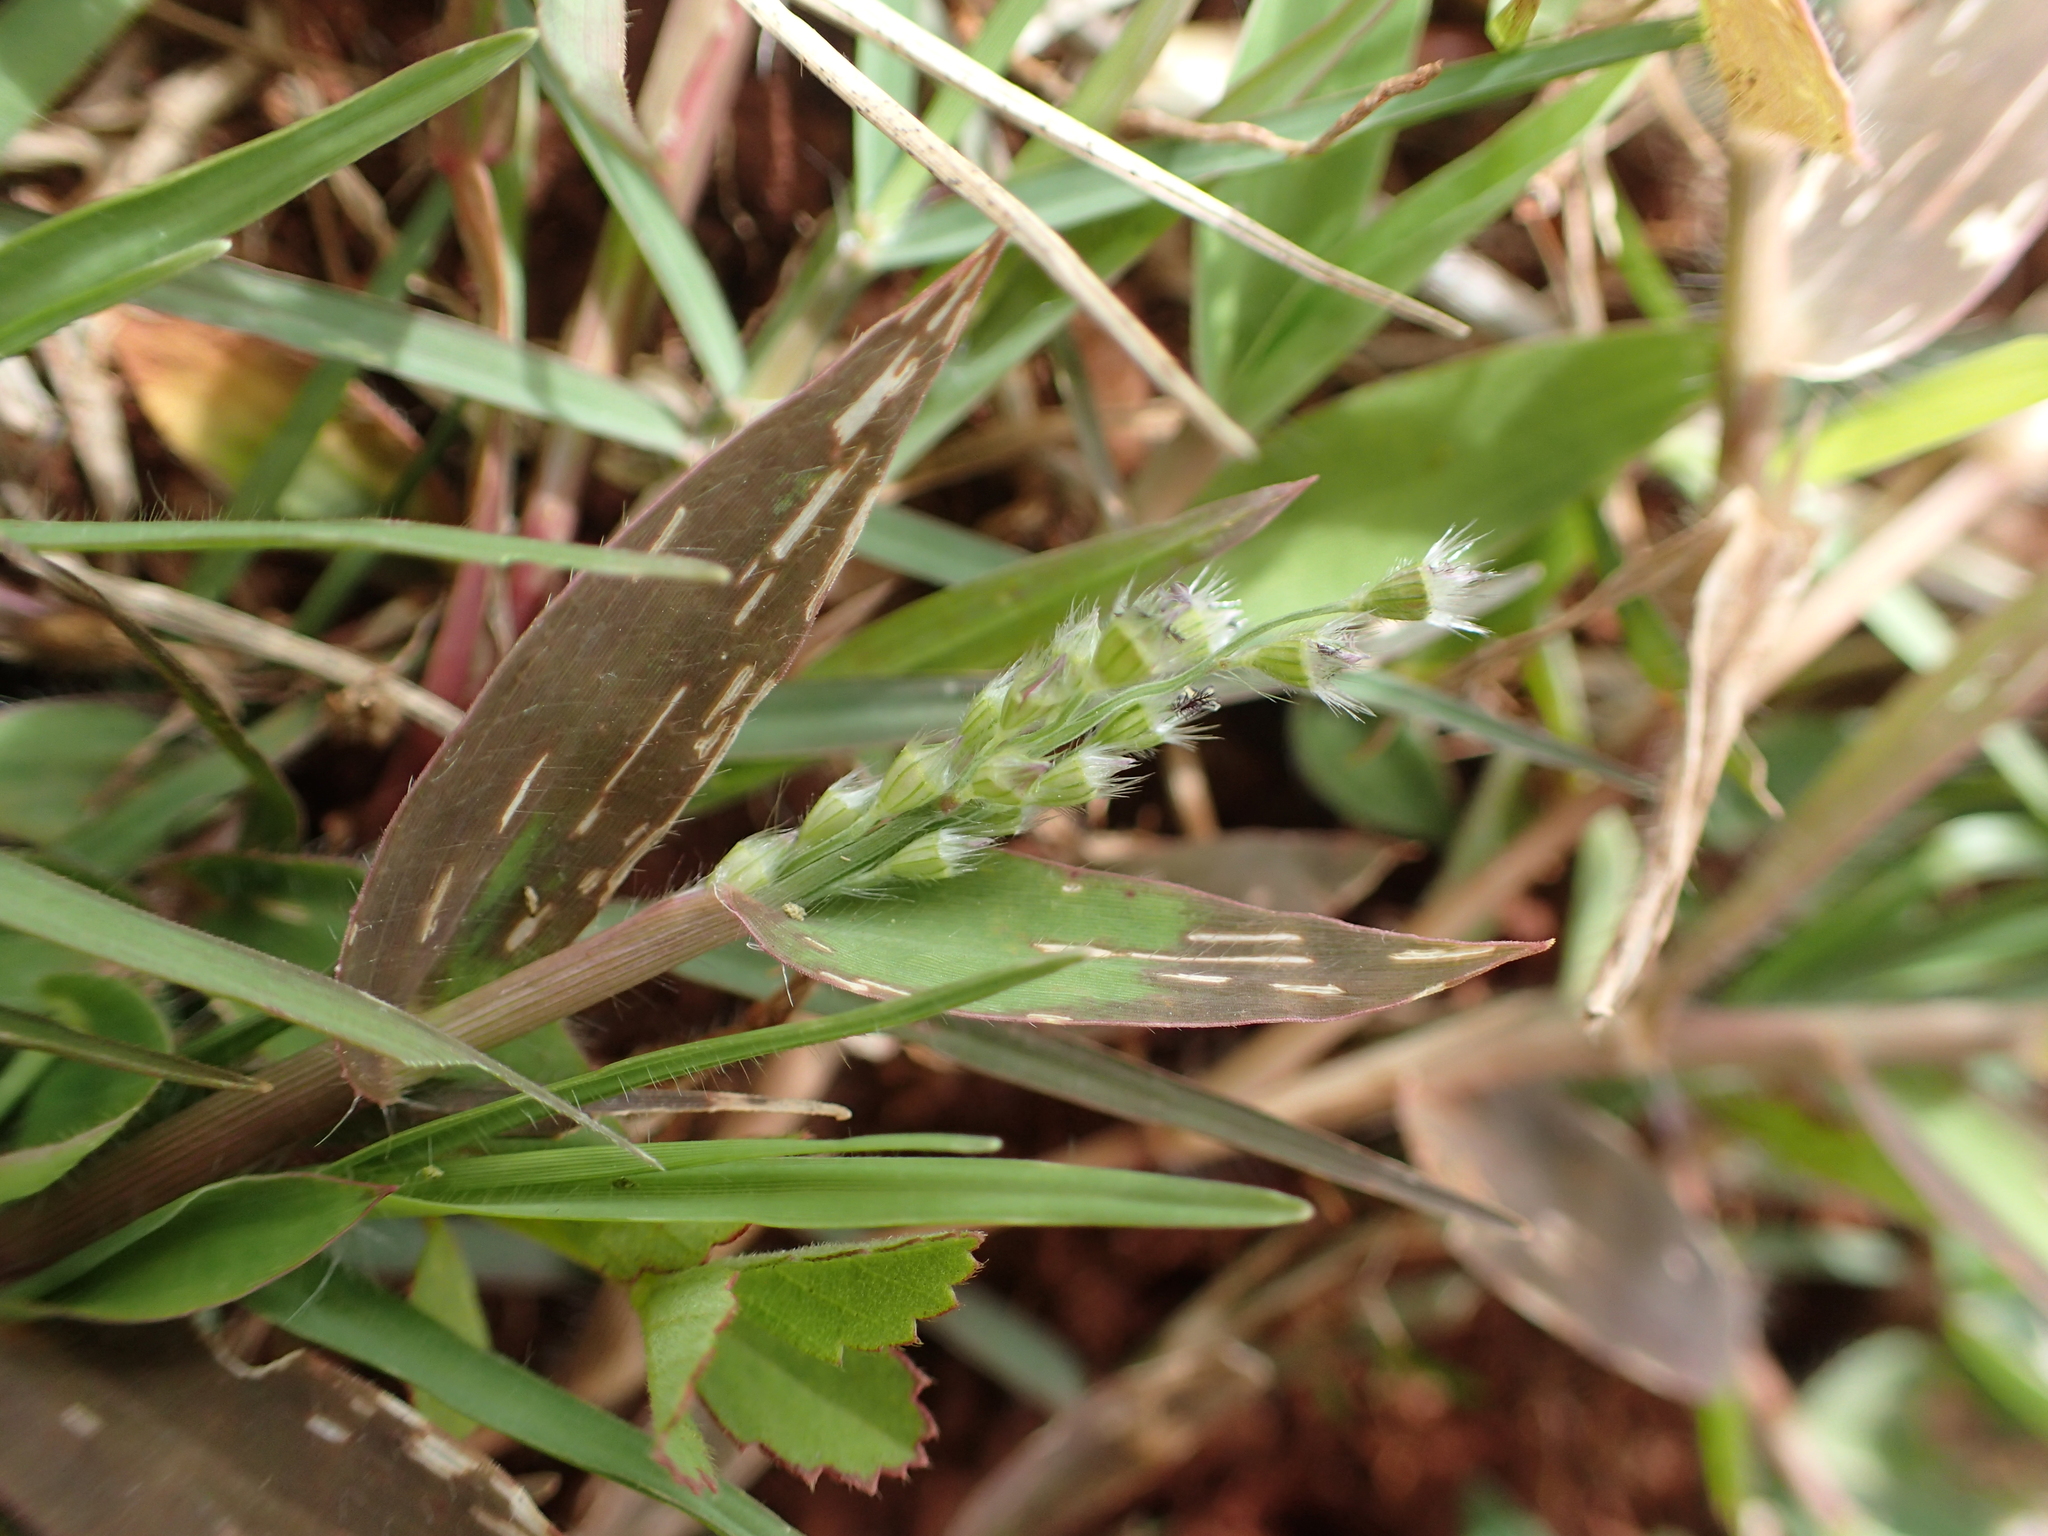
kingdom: Plantae
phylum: Tracheophyta
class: Liliopsida
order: Poales
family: Poaceae
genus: Urochloa
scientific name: Urochloa Brachiaria subrostrata
